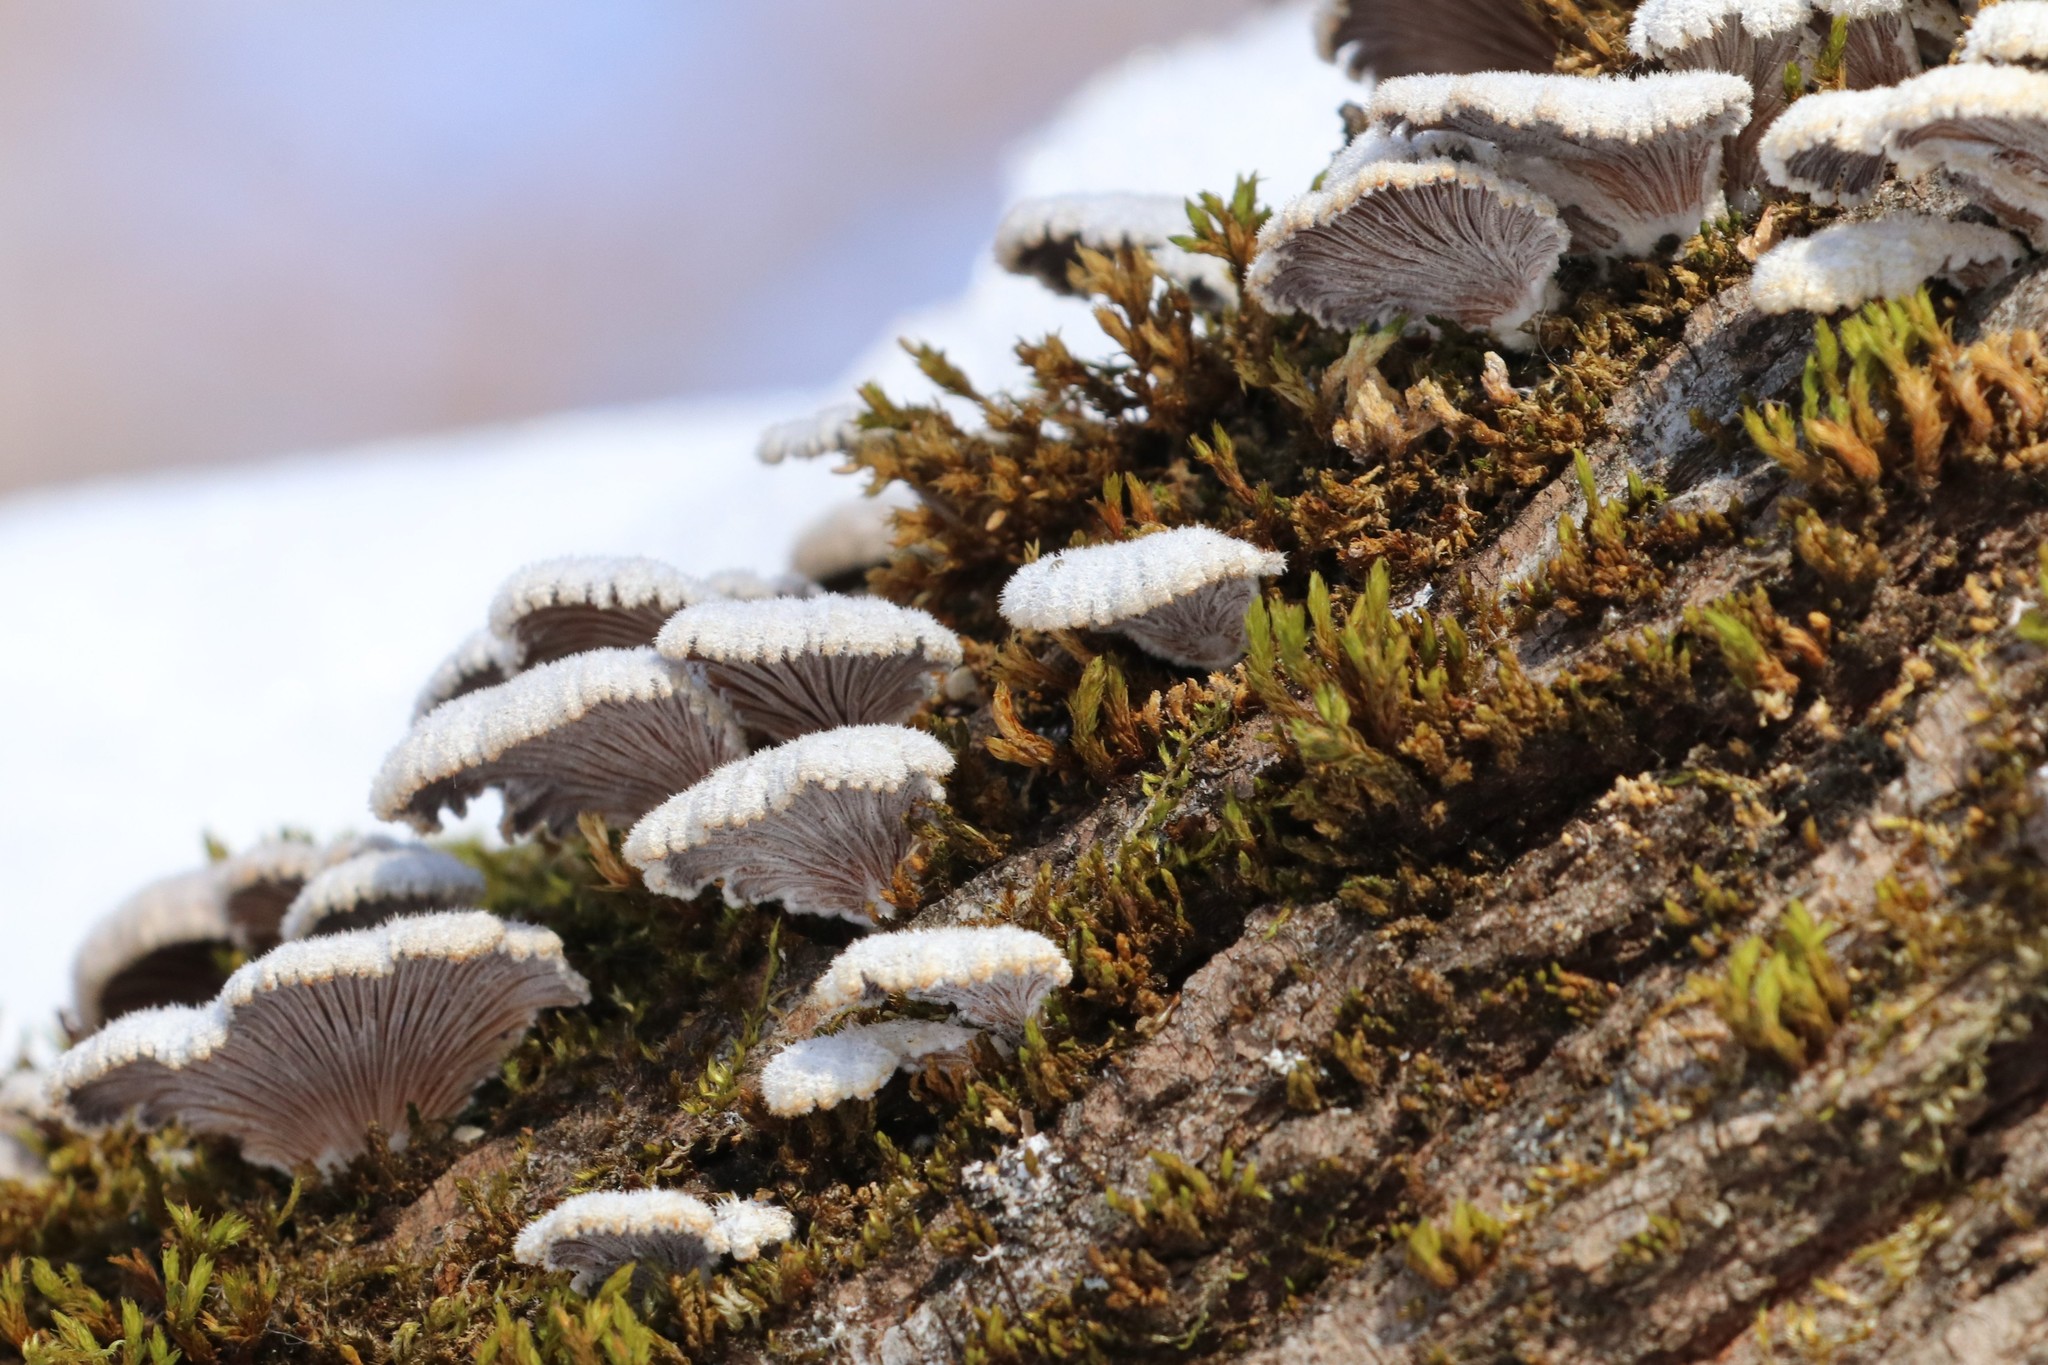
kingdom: Fungi
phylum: Basidiomycota
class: Agaricomycetes
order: Agaricales
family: Schizophyllaceae
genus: Schizophyllum
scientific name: Schizophyllum commune
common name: Common porecrust
